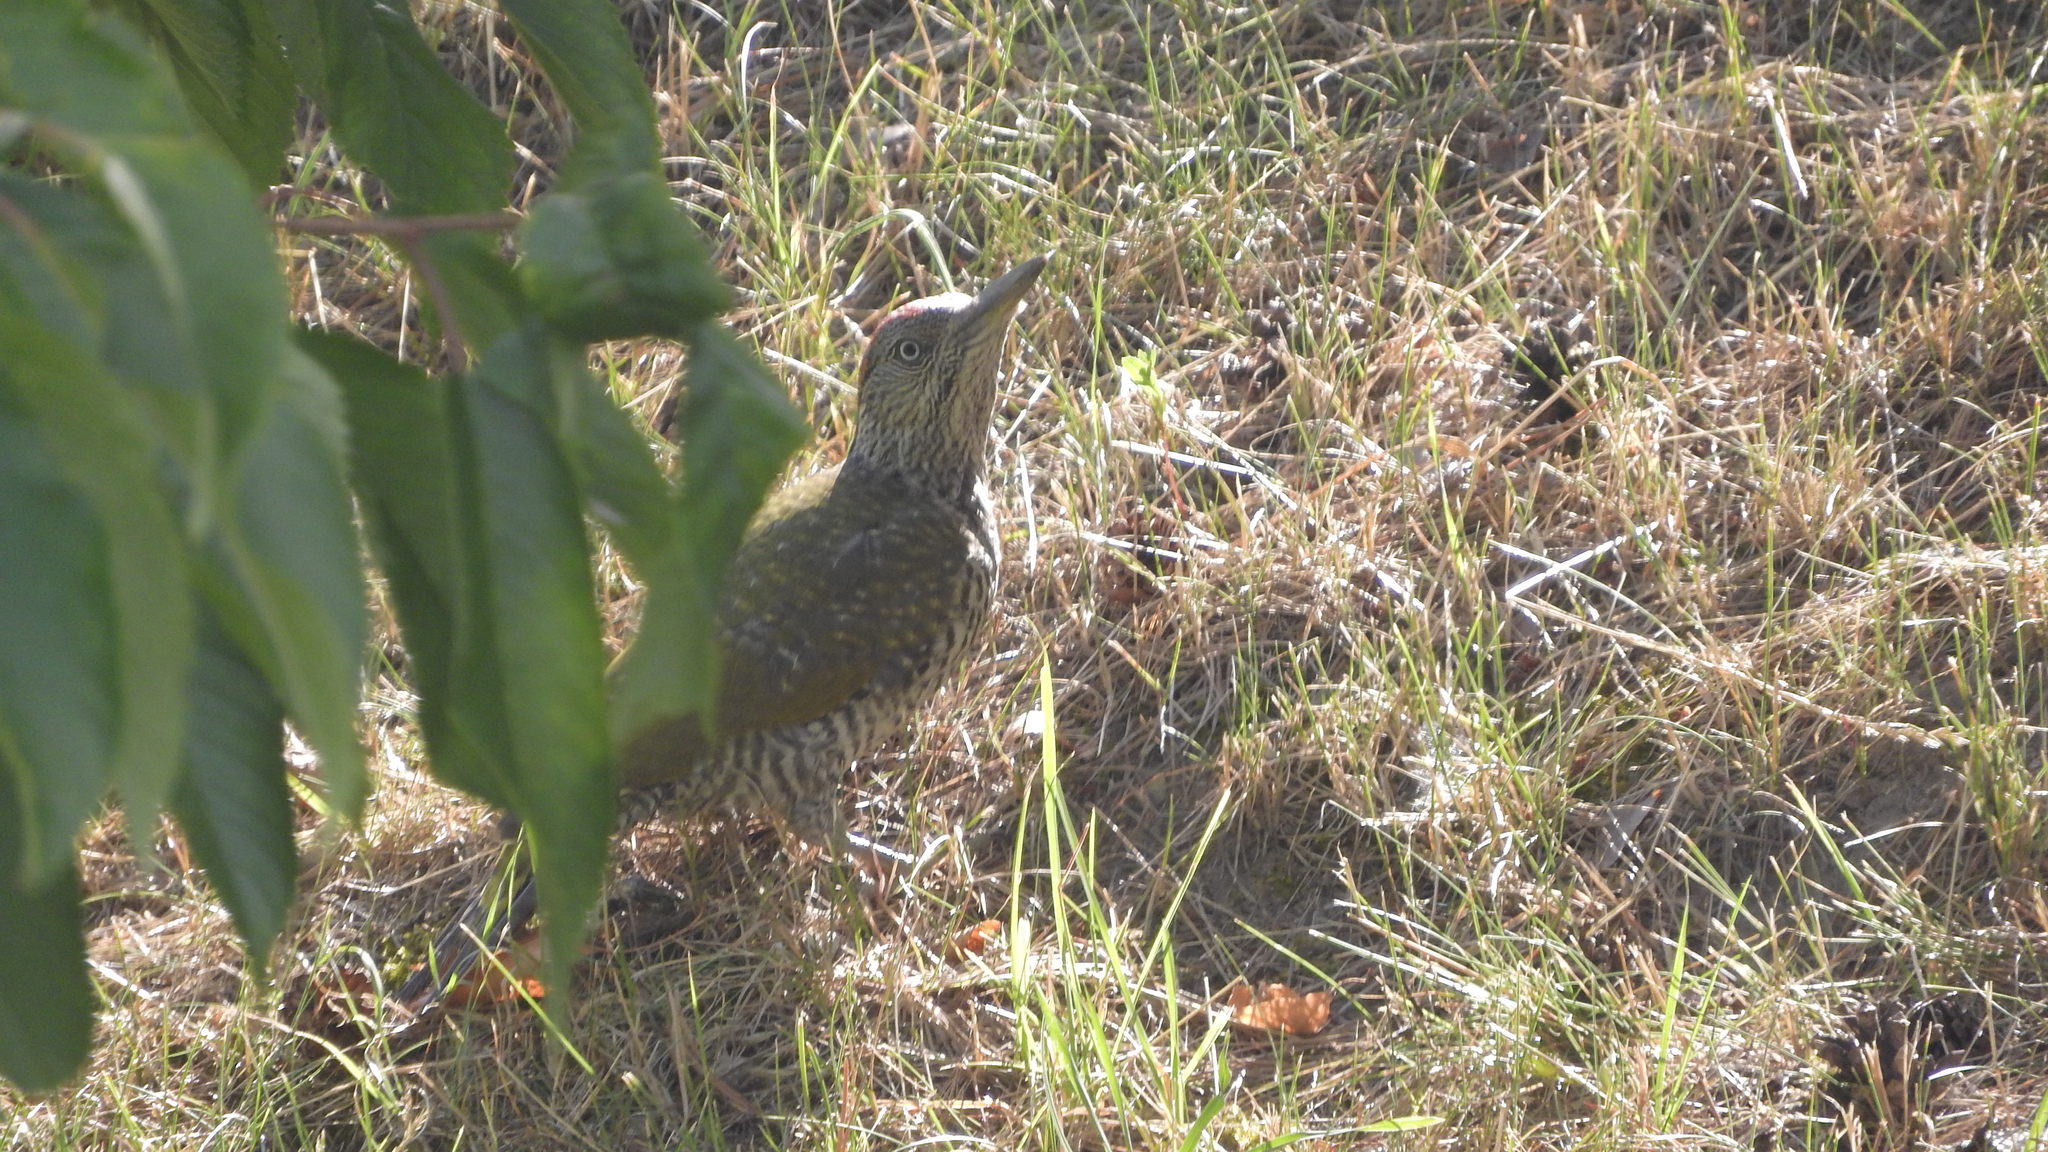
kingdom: Animalia
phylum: Chordata
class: Aves
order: Piciformes
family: Picidae
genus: Picus
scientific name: Picus viridis
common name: European green woodpecker
